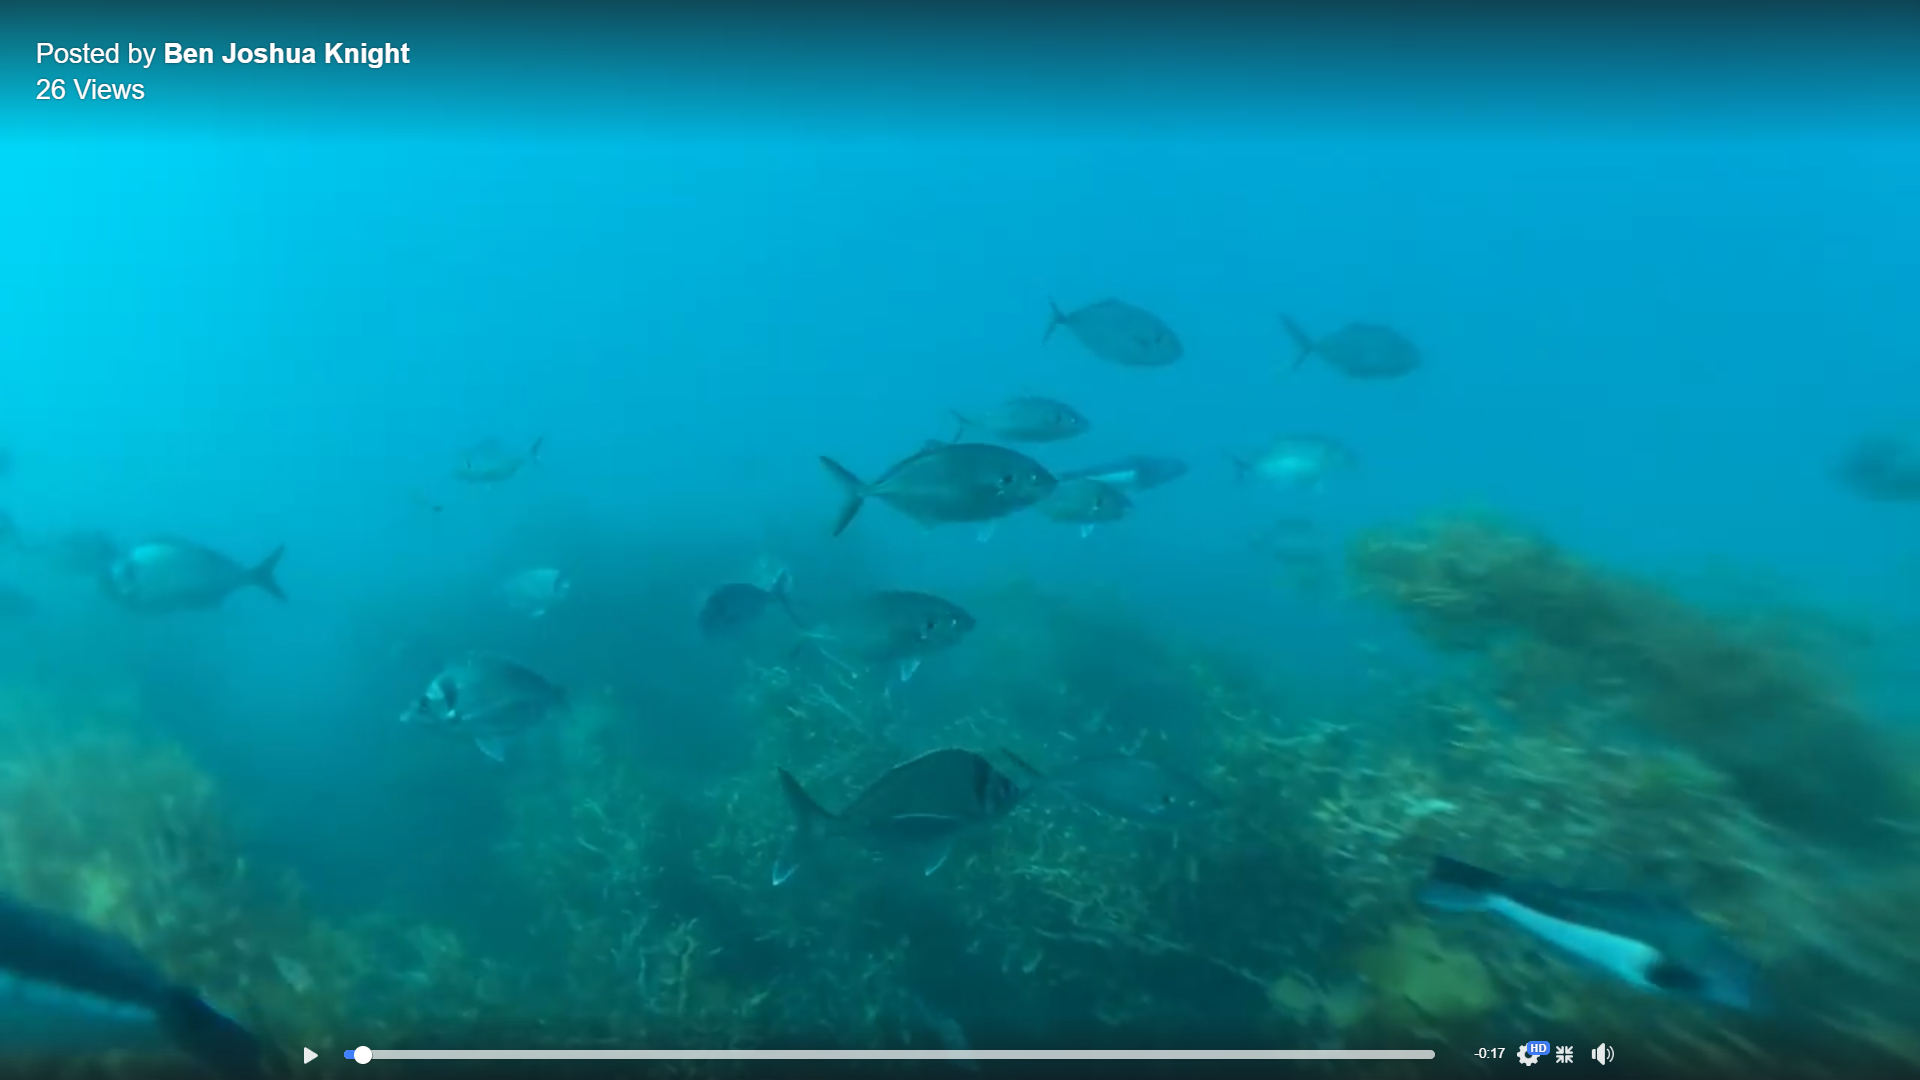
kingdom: Animalia
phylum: Chordata
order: Perciformes
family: Cheilodactylidae
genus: Nemadactylus
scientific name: Nemadactylus macropterus
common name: Tarakihi
